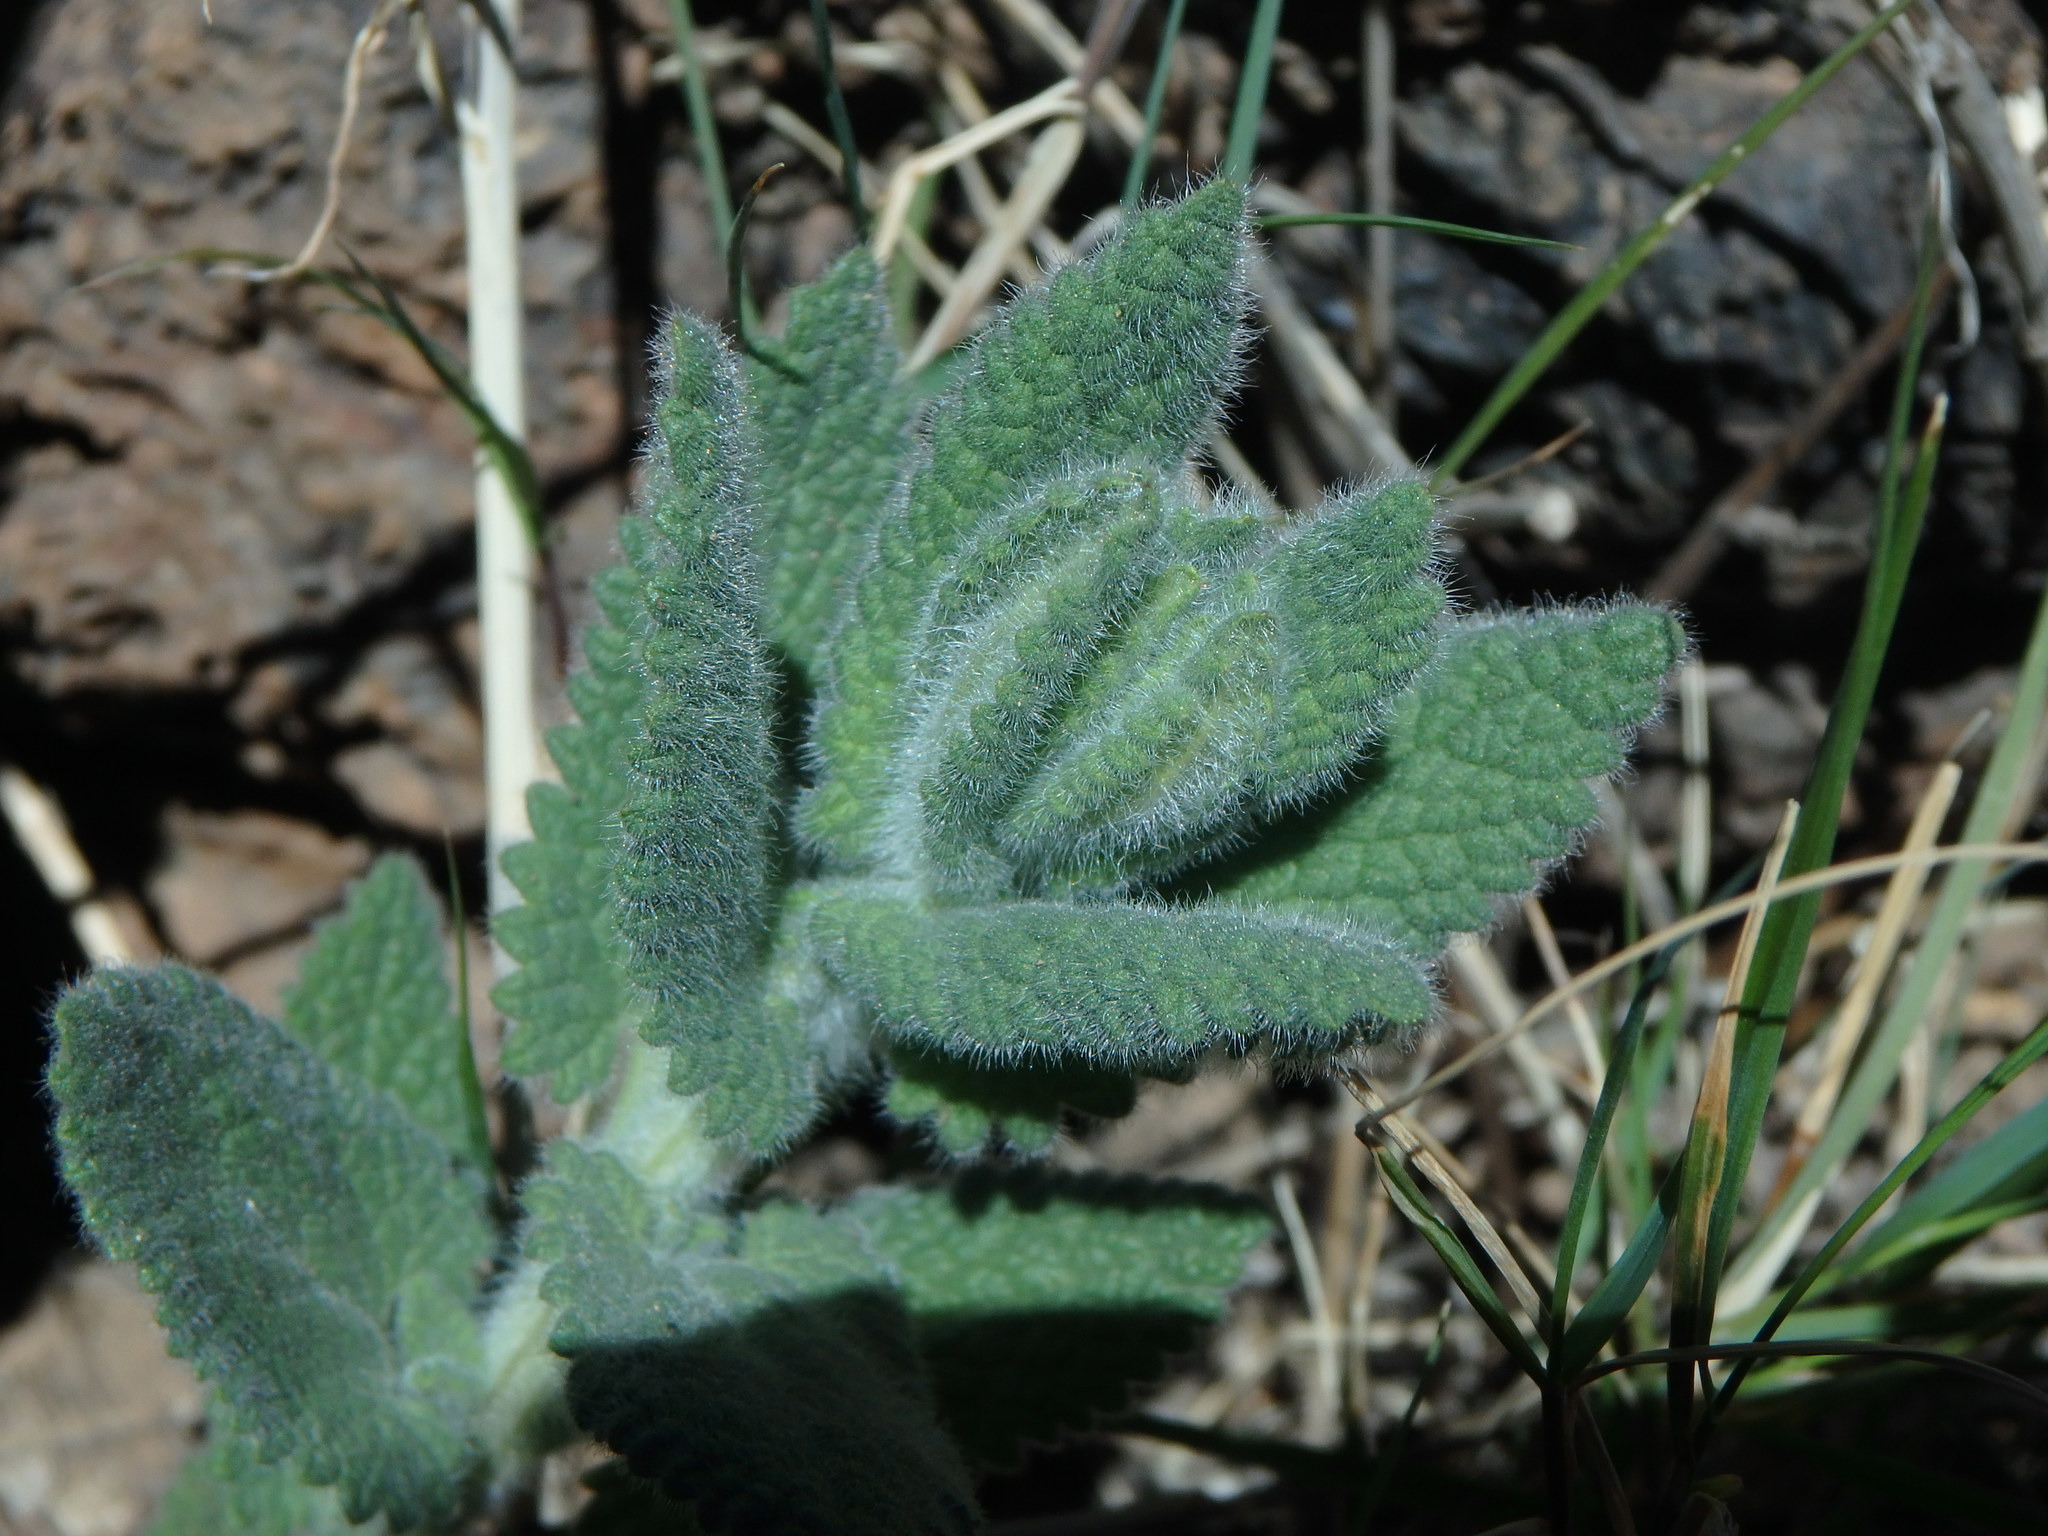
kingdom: Plantae
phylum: Tracheophyta
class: Magnoliopsida
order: Lamiales
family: Lamiaceae
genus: Nepeta
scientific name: Nepeta teydea
